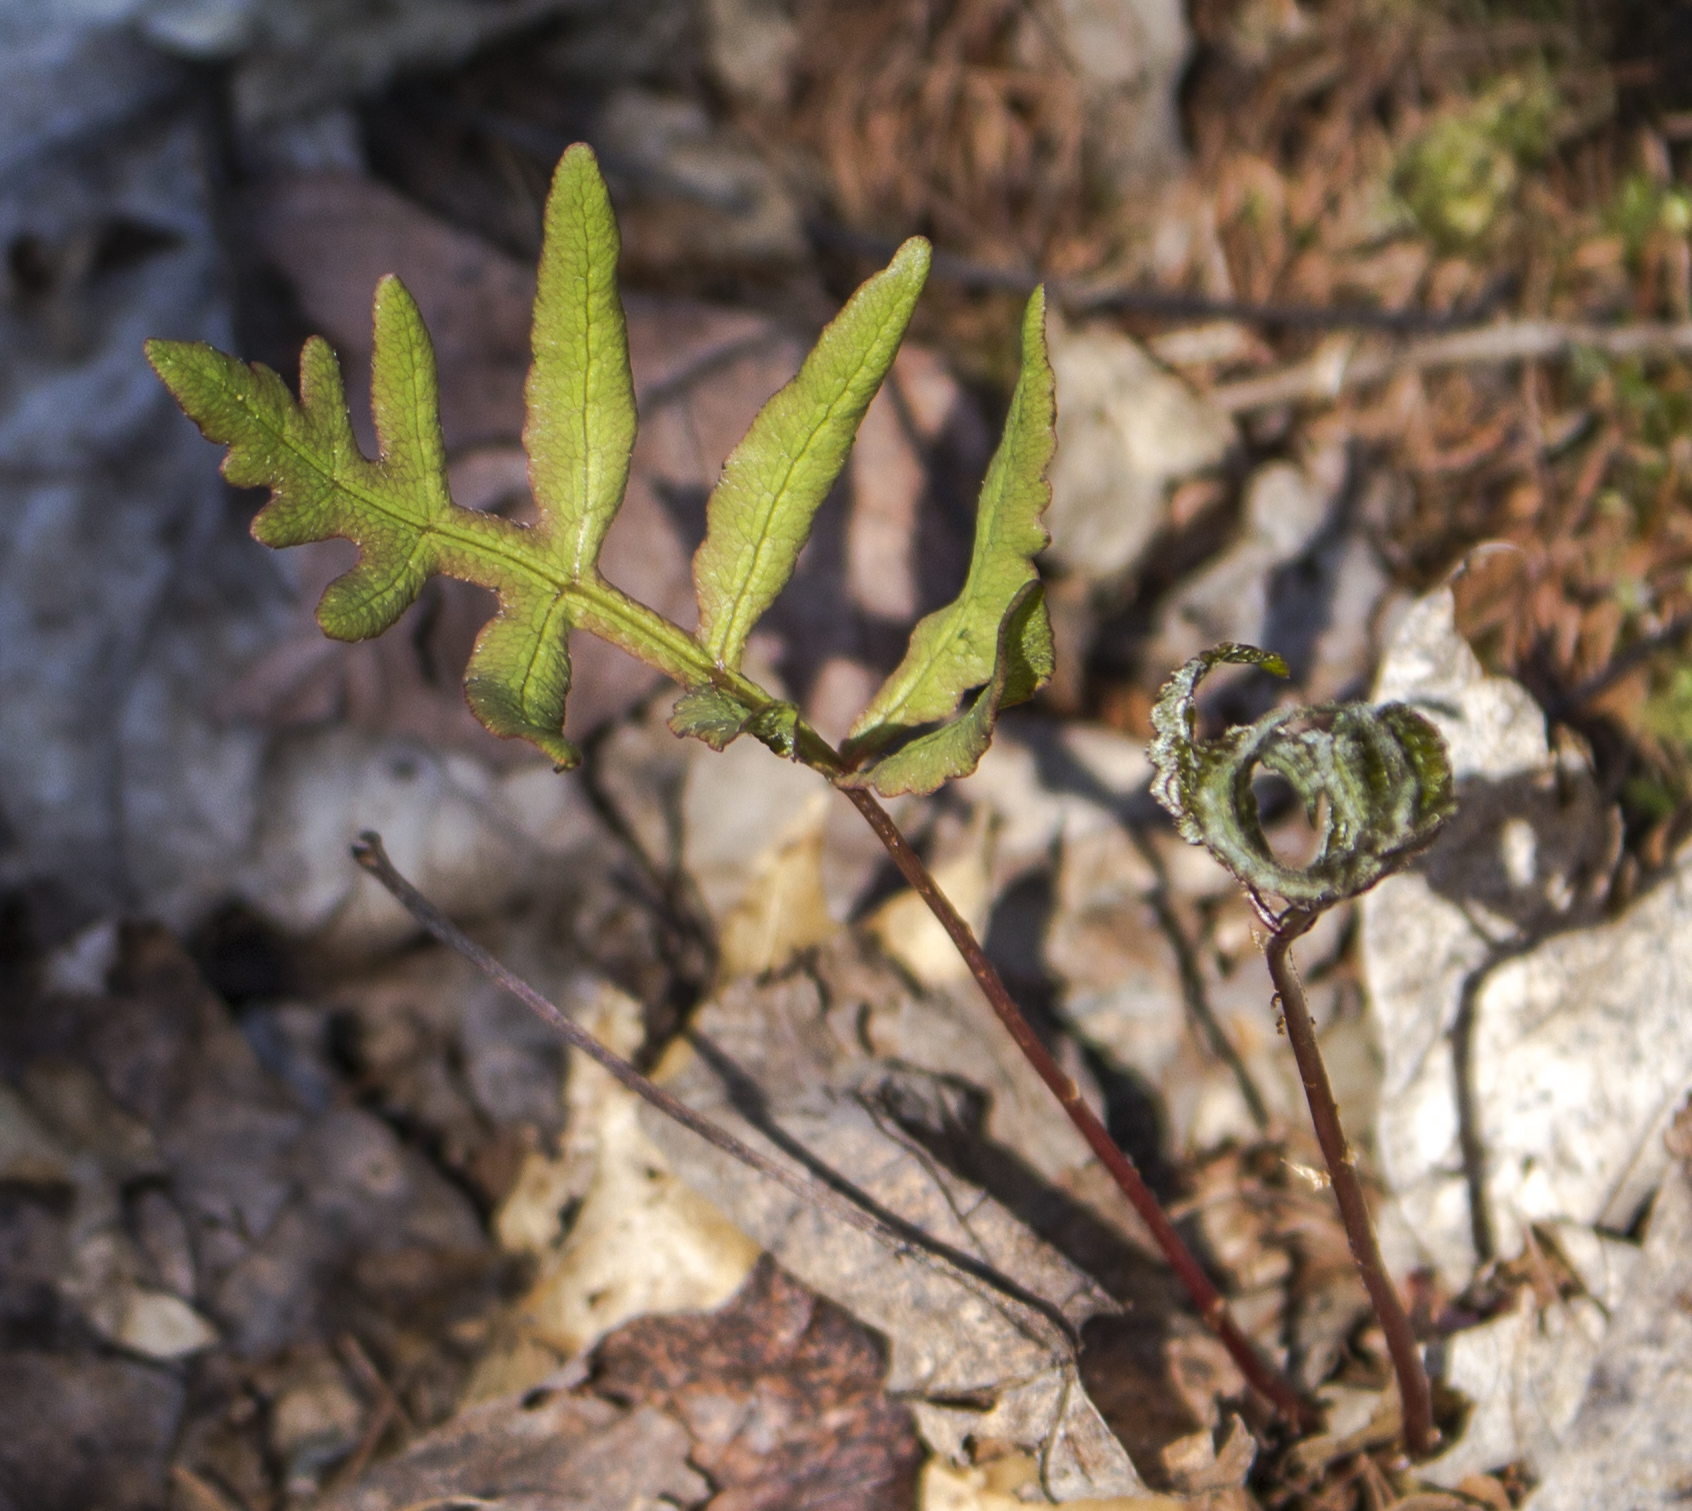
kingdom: Plantae
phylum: Tracheophyta
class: Polypodiopsida
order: Polypodiales
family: Onocleaceae
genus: Onoclea
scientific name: Onoclea sensibilis
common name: Sensitive fern
